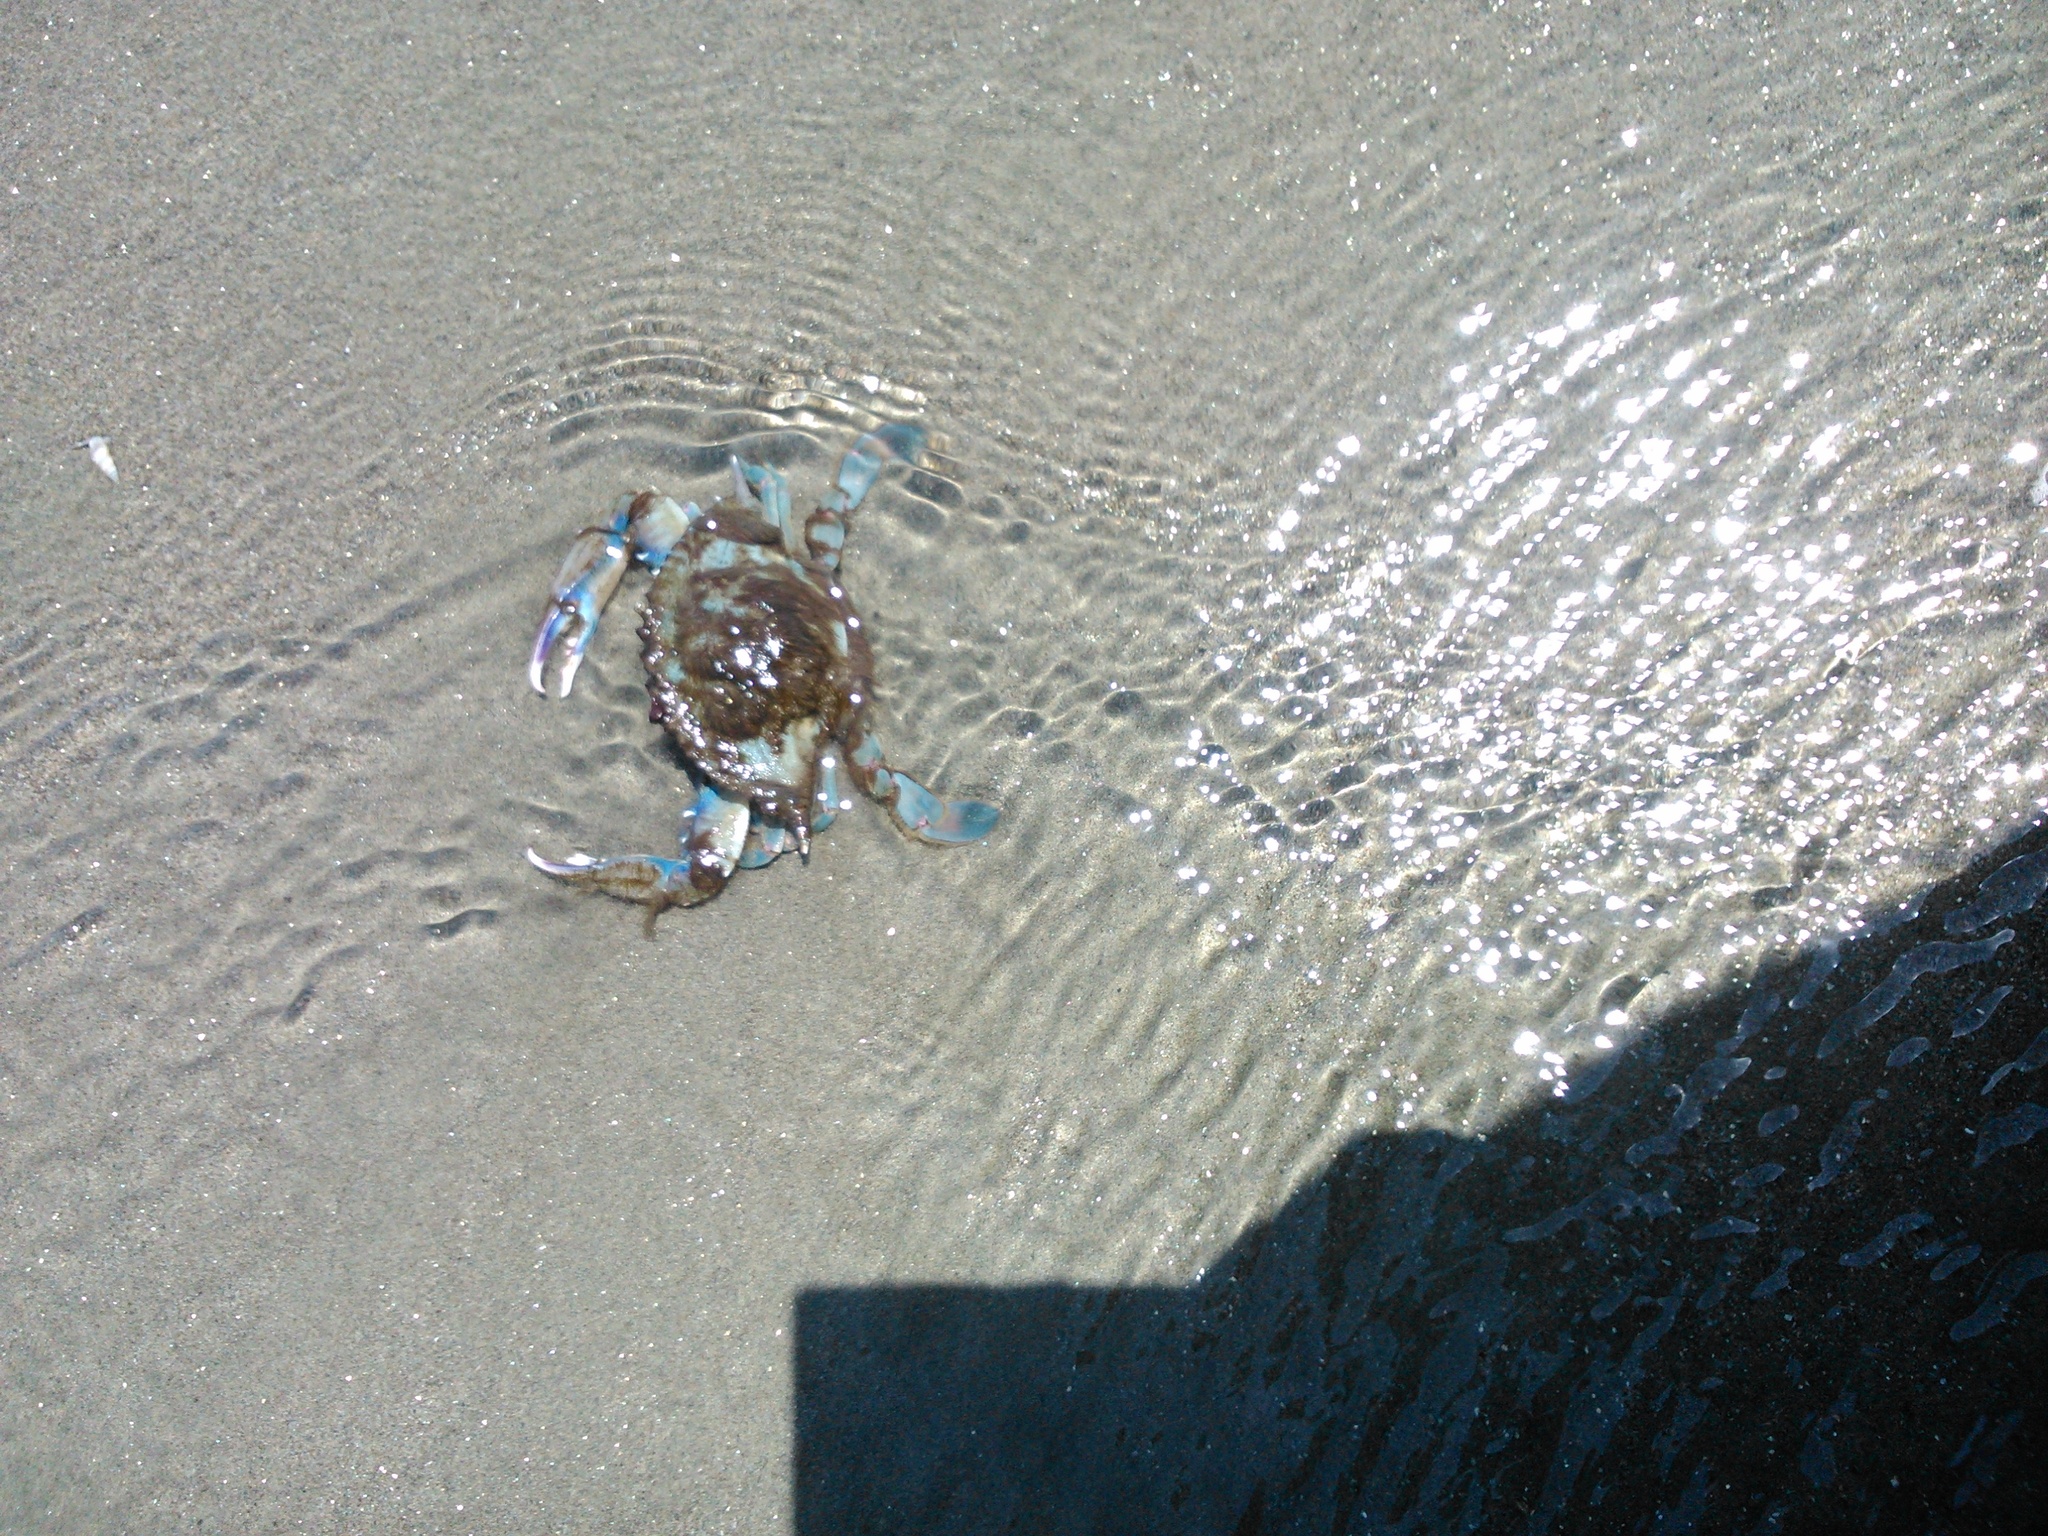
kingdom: Animalia
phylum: Arthropoda
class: Malacostraca
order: Decapoda
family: Portunidae
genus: Callinectes
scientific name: Callinectes arcuatus
